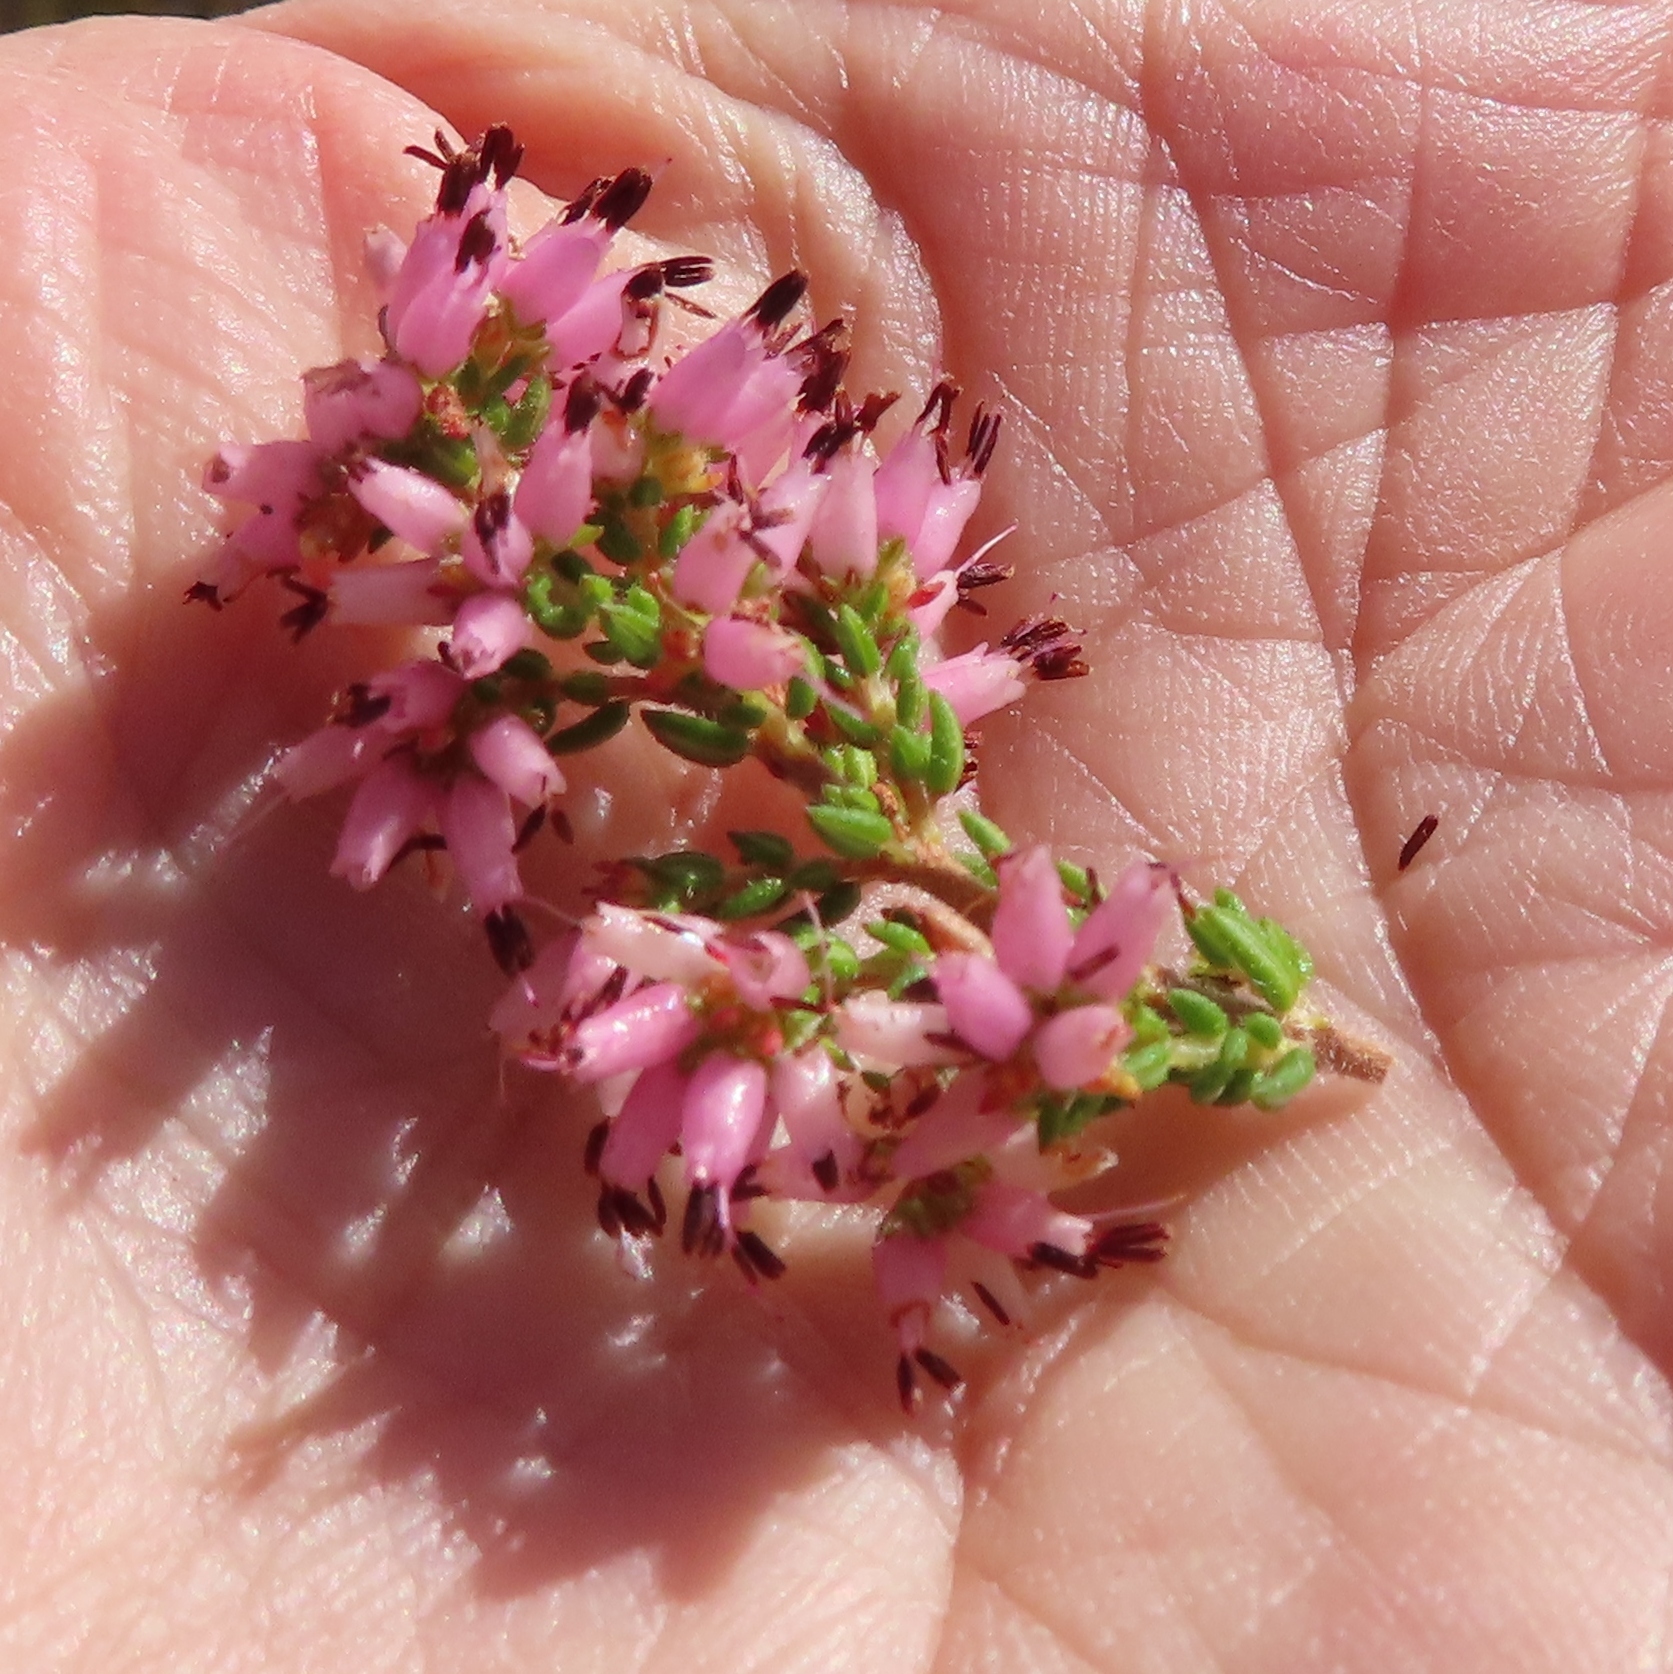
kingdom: Plantae
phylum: Tracheophyta
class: Magnoliopsida
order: Ericales
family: Ericaceae
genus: Erica
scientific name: Erica interrupta
